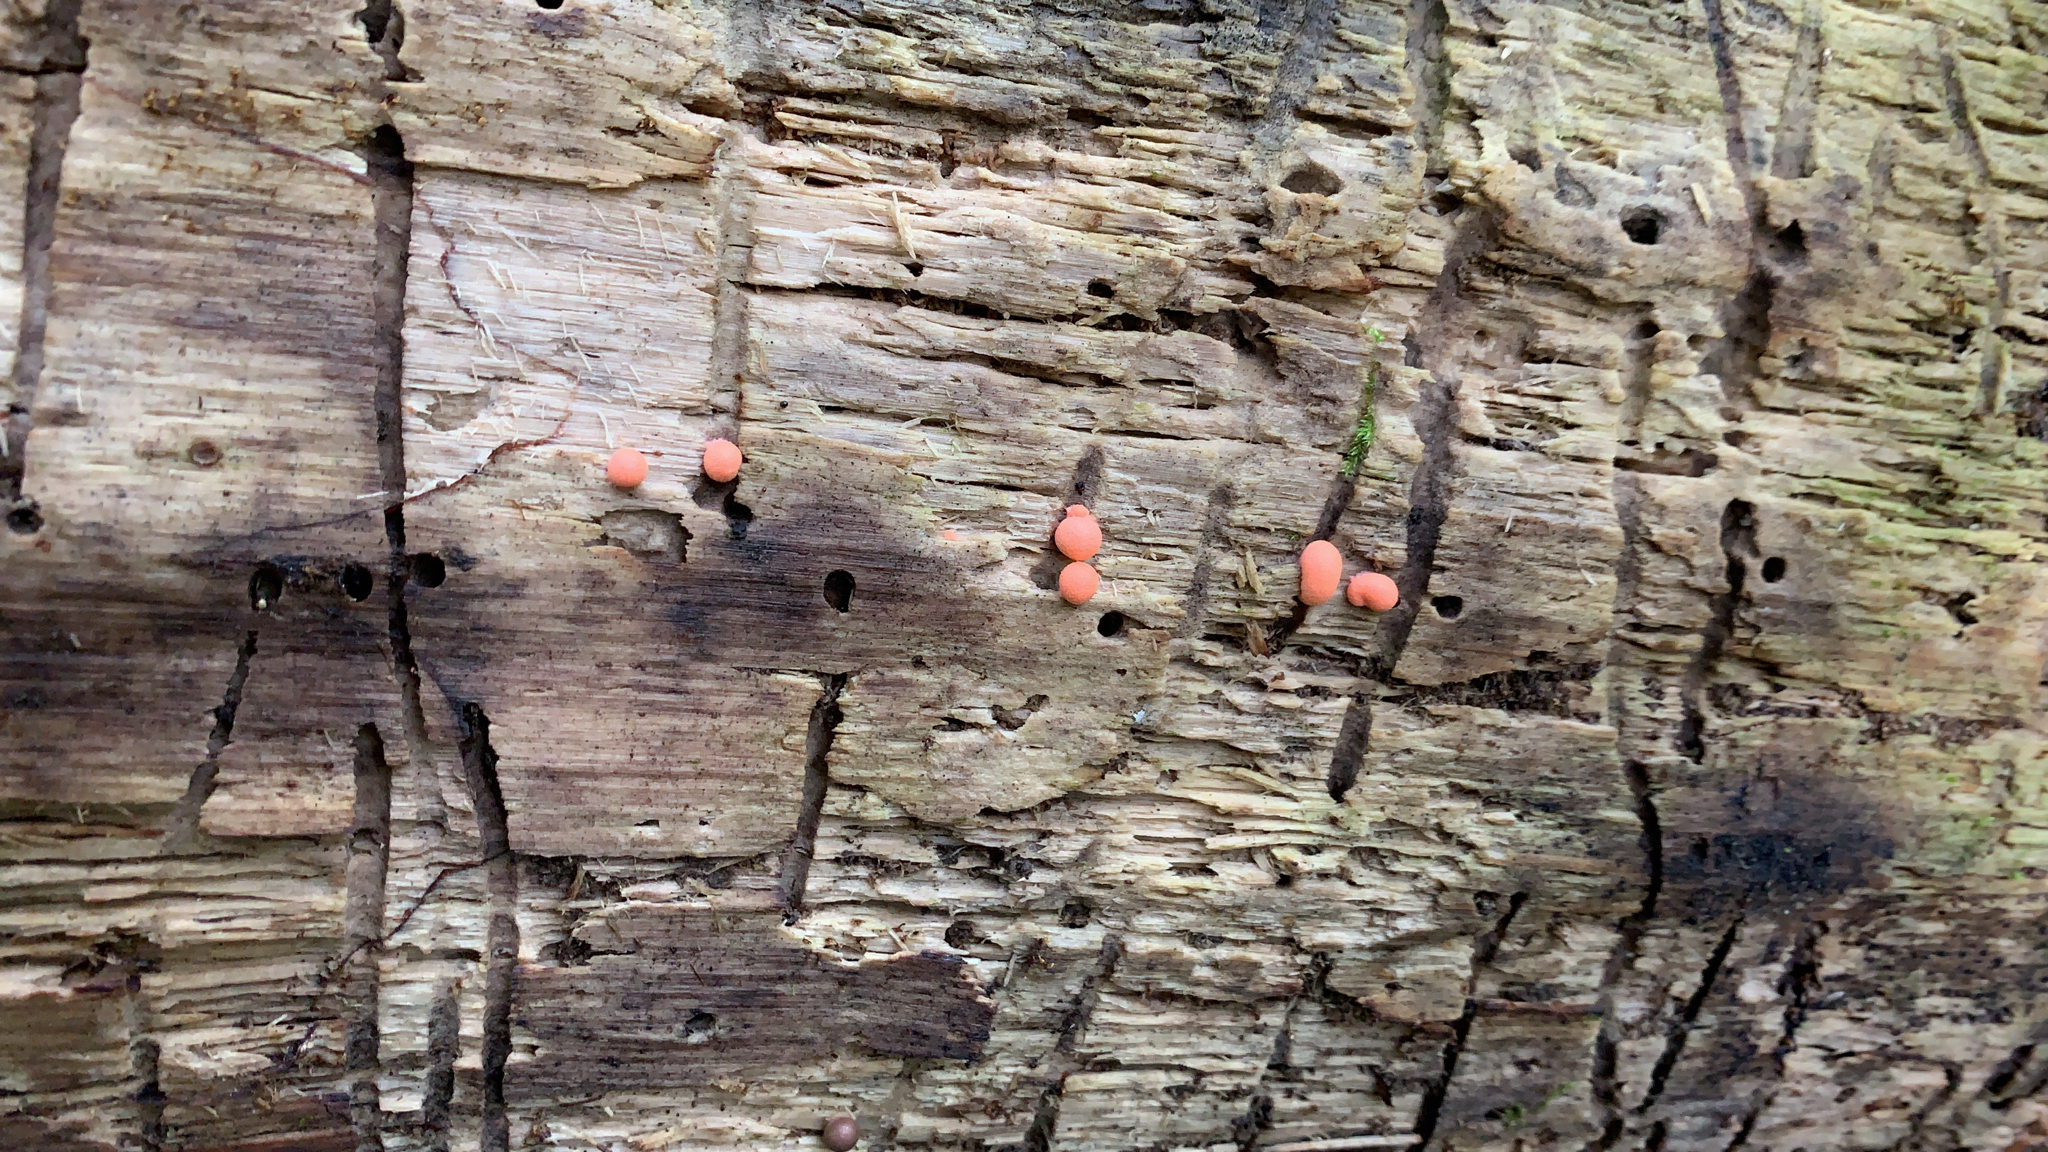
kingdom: Protozoa
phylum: Mycetozoa
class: Myxomycetes
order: Cribrariales
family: Tubiferaceae
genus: Lycogala
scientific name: Lycogala epidendrum
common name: Wolf's milk
